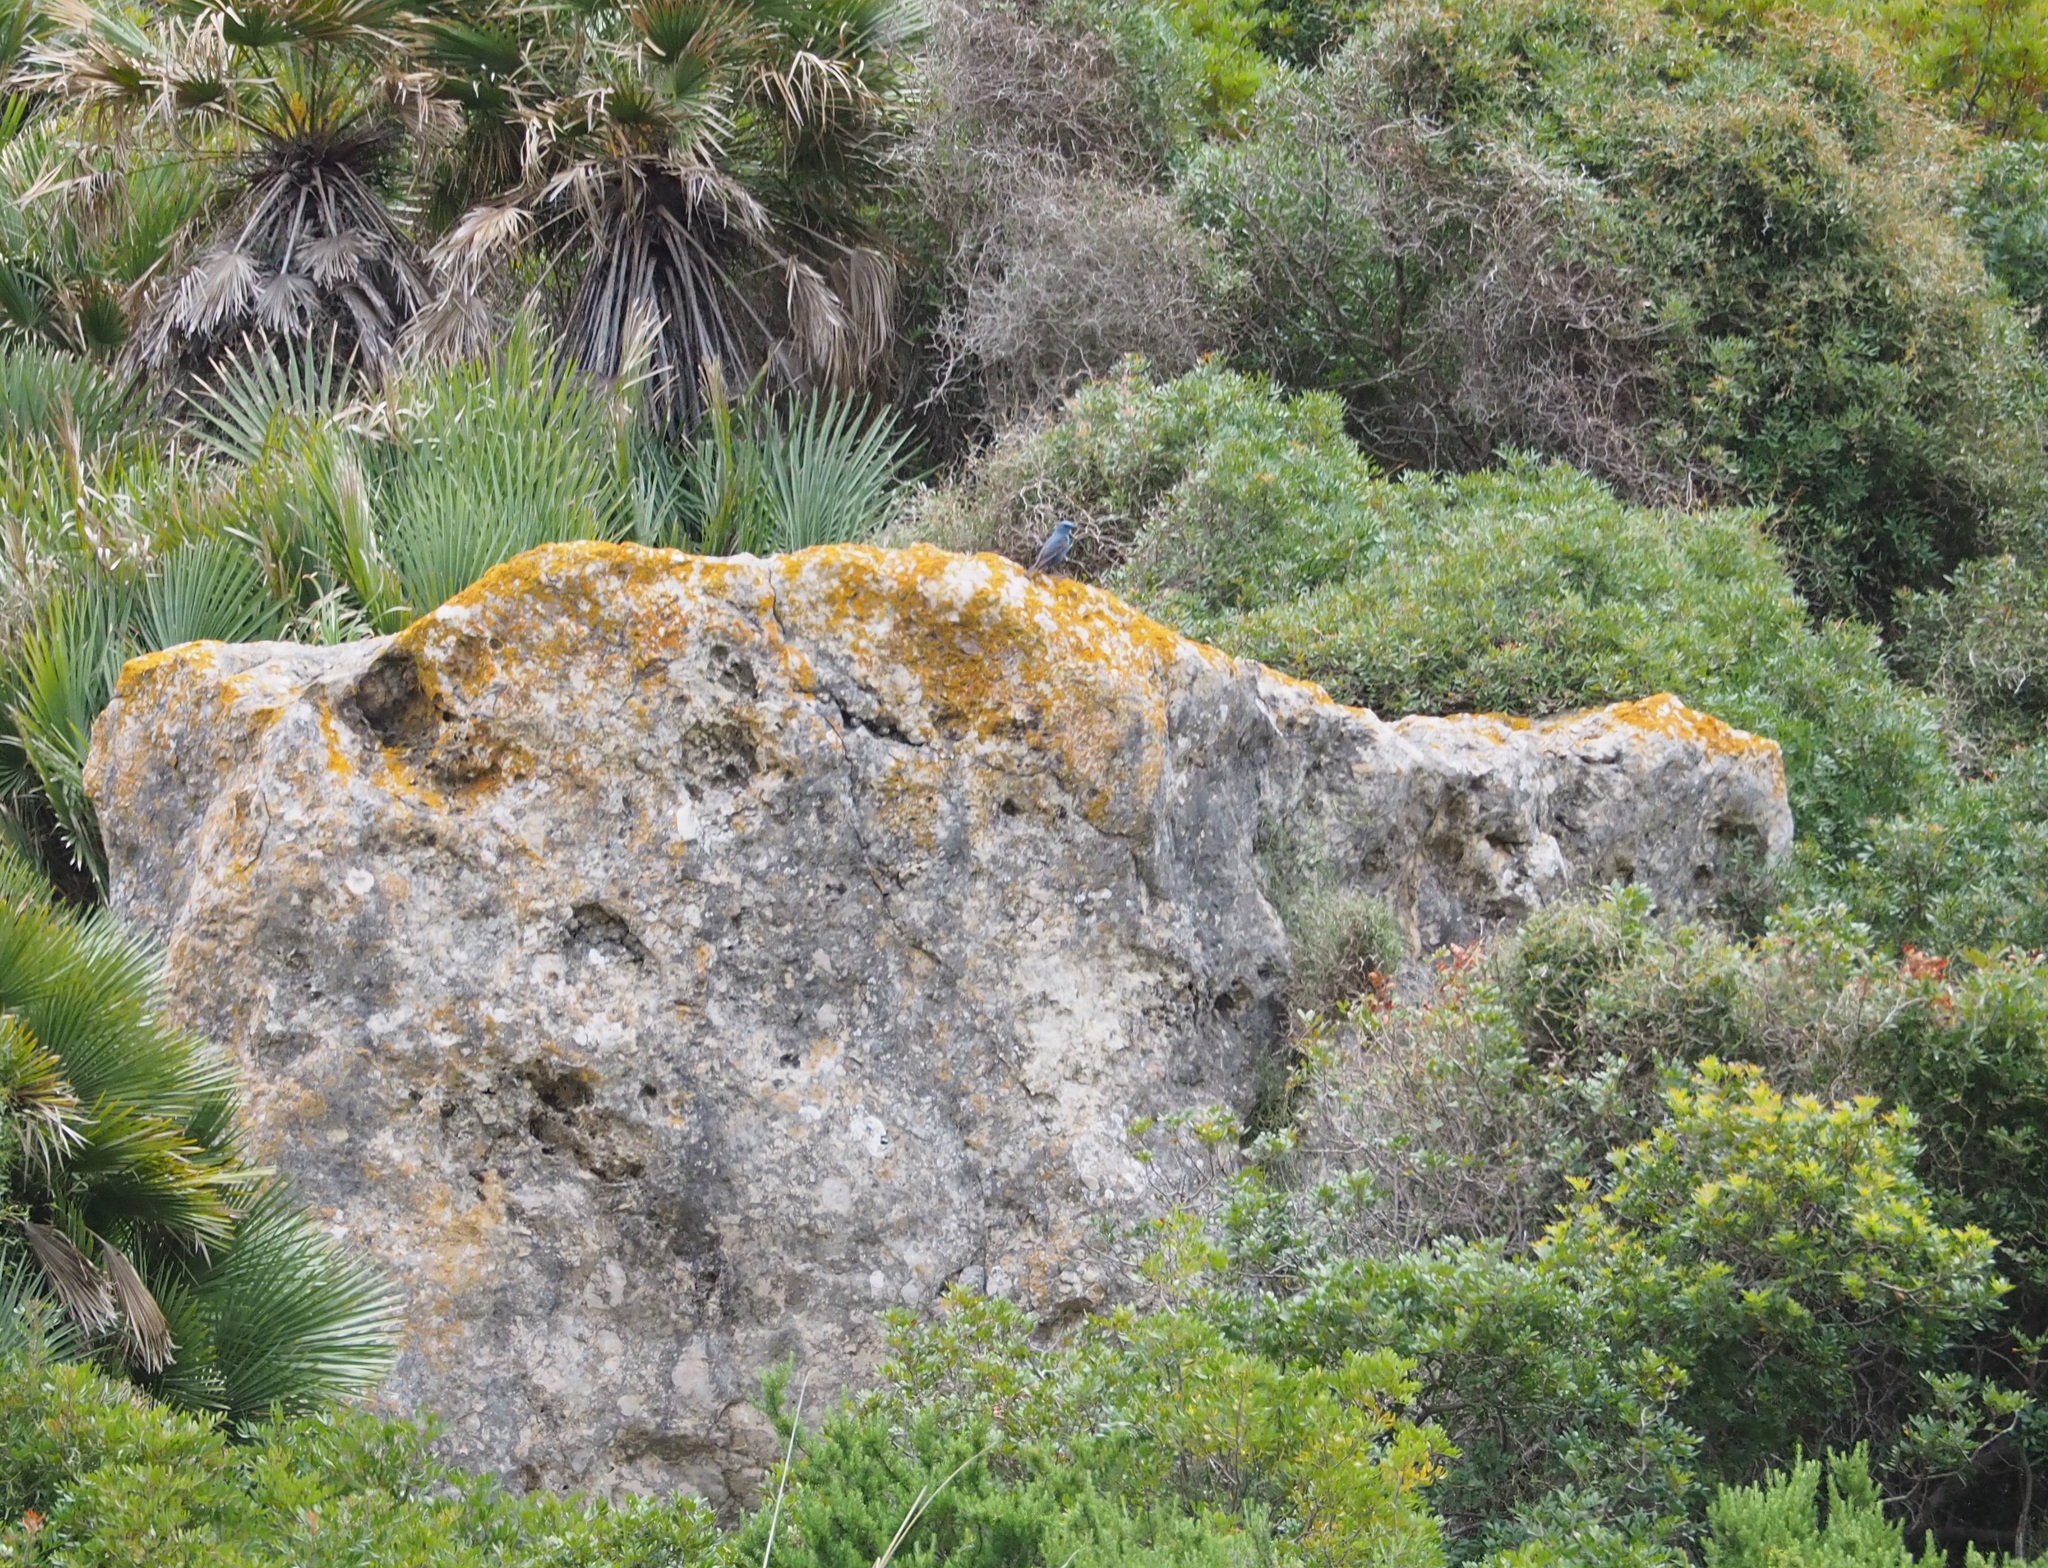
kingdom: Animalia
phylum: Chordata
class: Aves
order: Passeriformes
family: Muscicapidae
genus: Monticola
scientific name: Monticola solitarius
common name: Blue rock thrush
